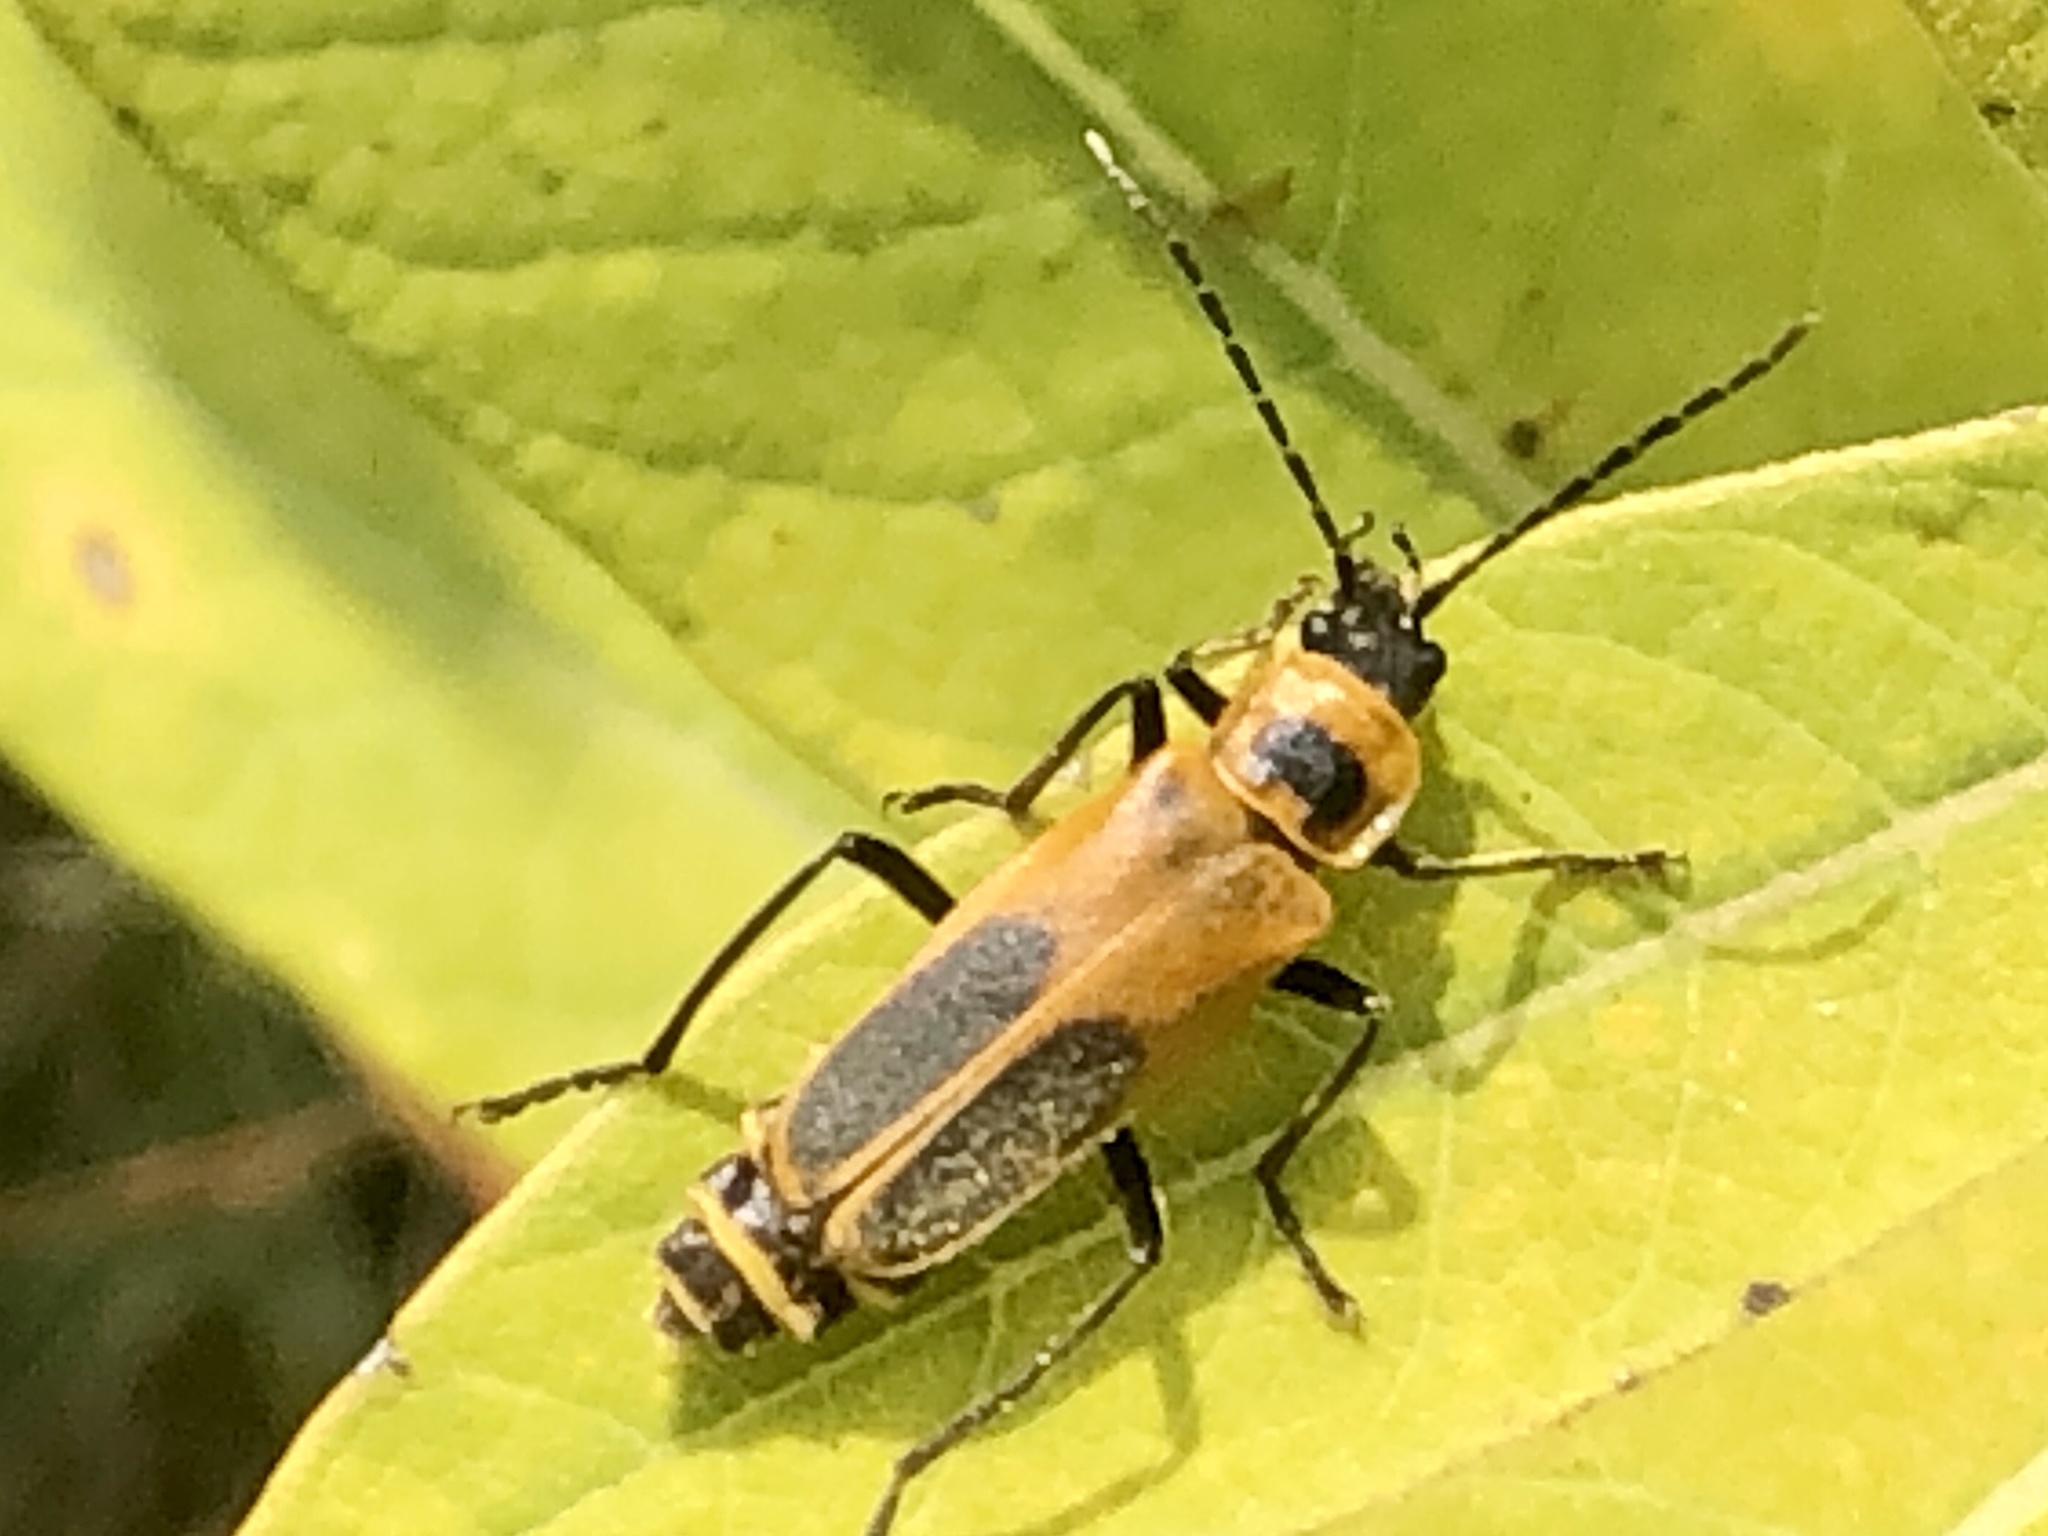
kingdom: Animalia
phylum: Arthropoda
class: Insecta
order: Coleoptera
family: Cantharidae
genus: Chauliognathus
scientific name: Chauliognathus pensylvanicus
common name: Goldenrod soldier beetle
